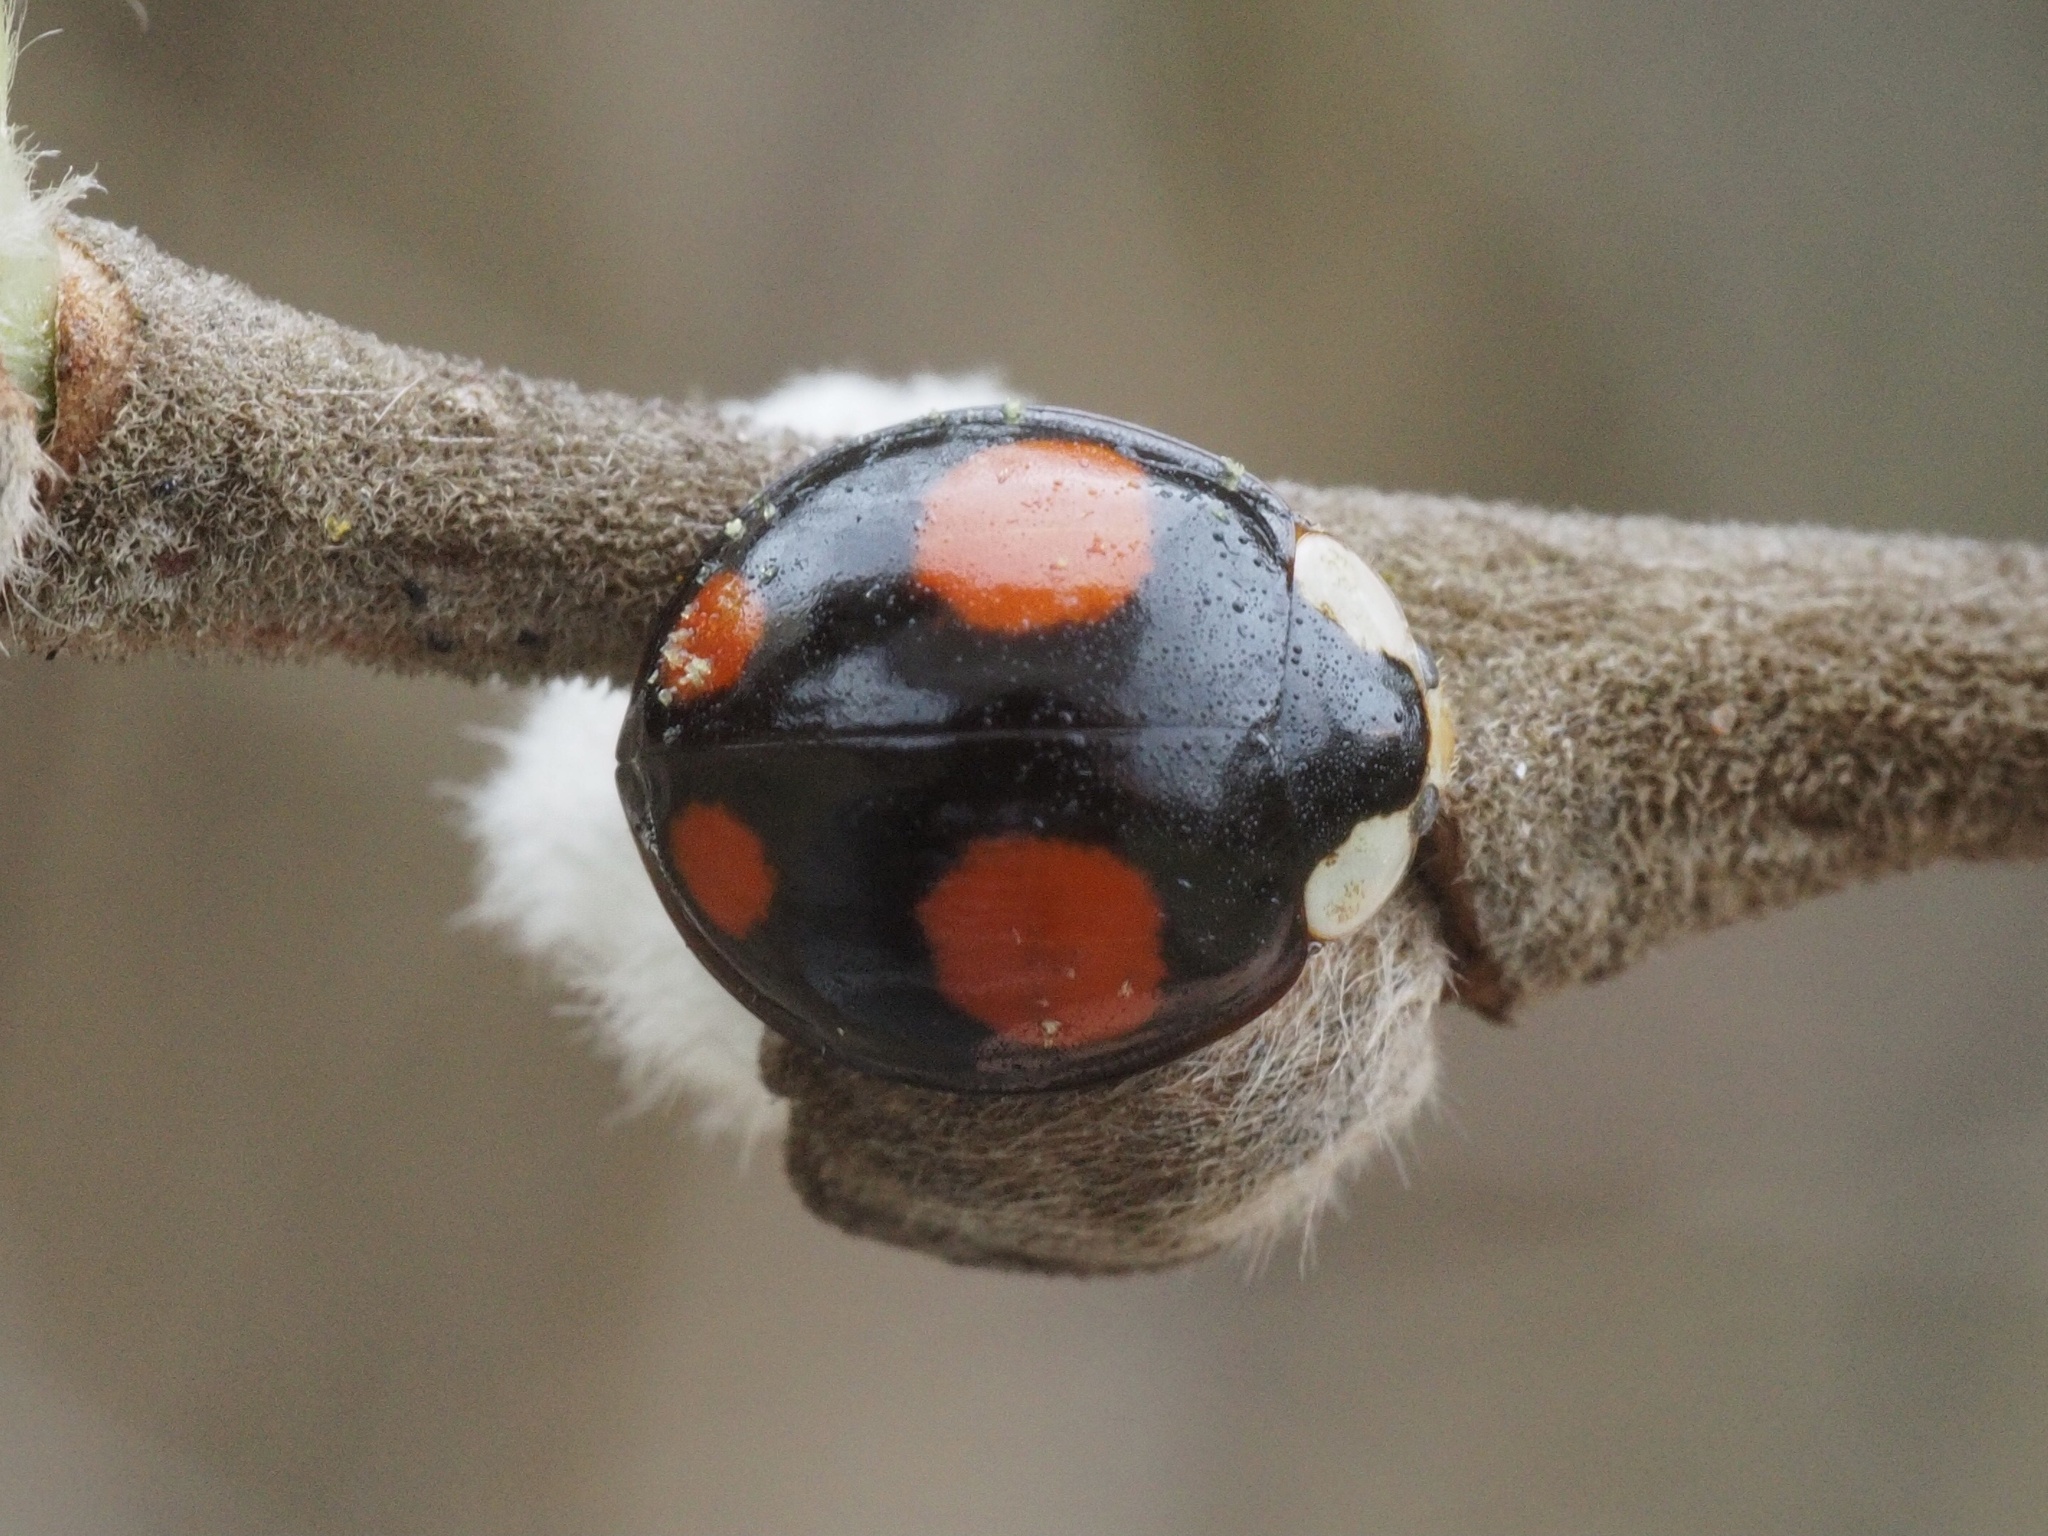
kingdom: Animalia
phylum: Arthropoda
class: Insecta
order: Coleoptera
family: Coccinellidae
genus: Harmonia
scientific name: Harmonia axyridis
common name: Harlequin ladybird
